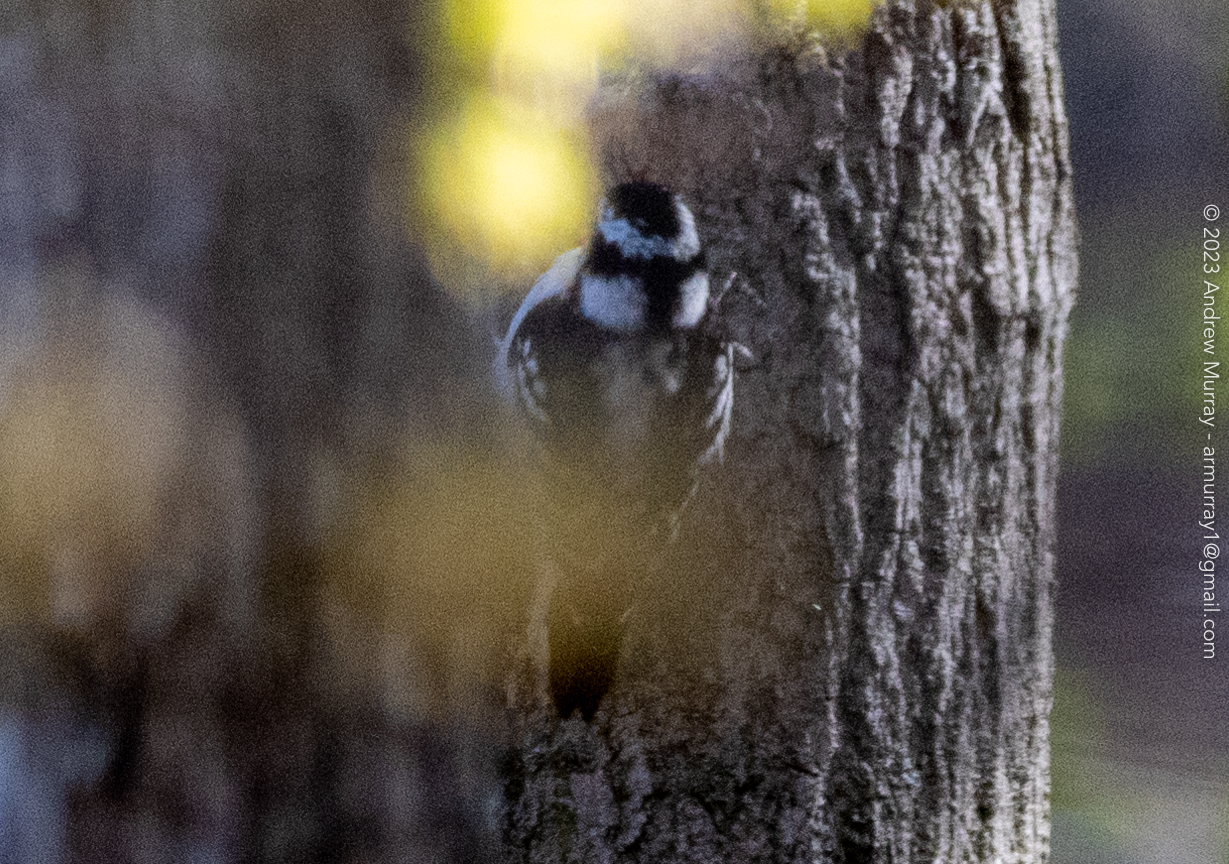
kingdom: Animalia
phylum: Chordata
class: Aves
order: Piciformes
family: Picidae
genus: Dryobates
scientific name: Dryobates pubescens
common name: Downy woodpecker
